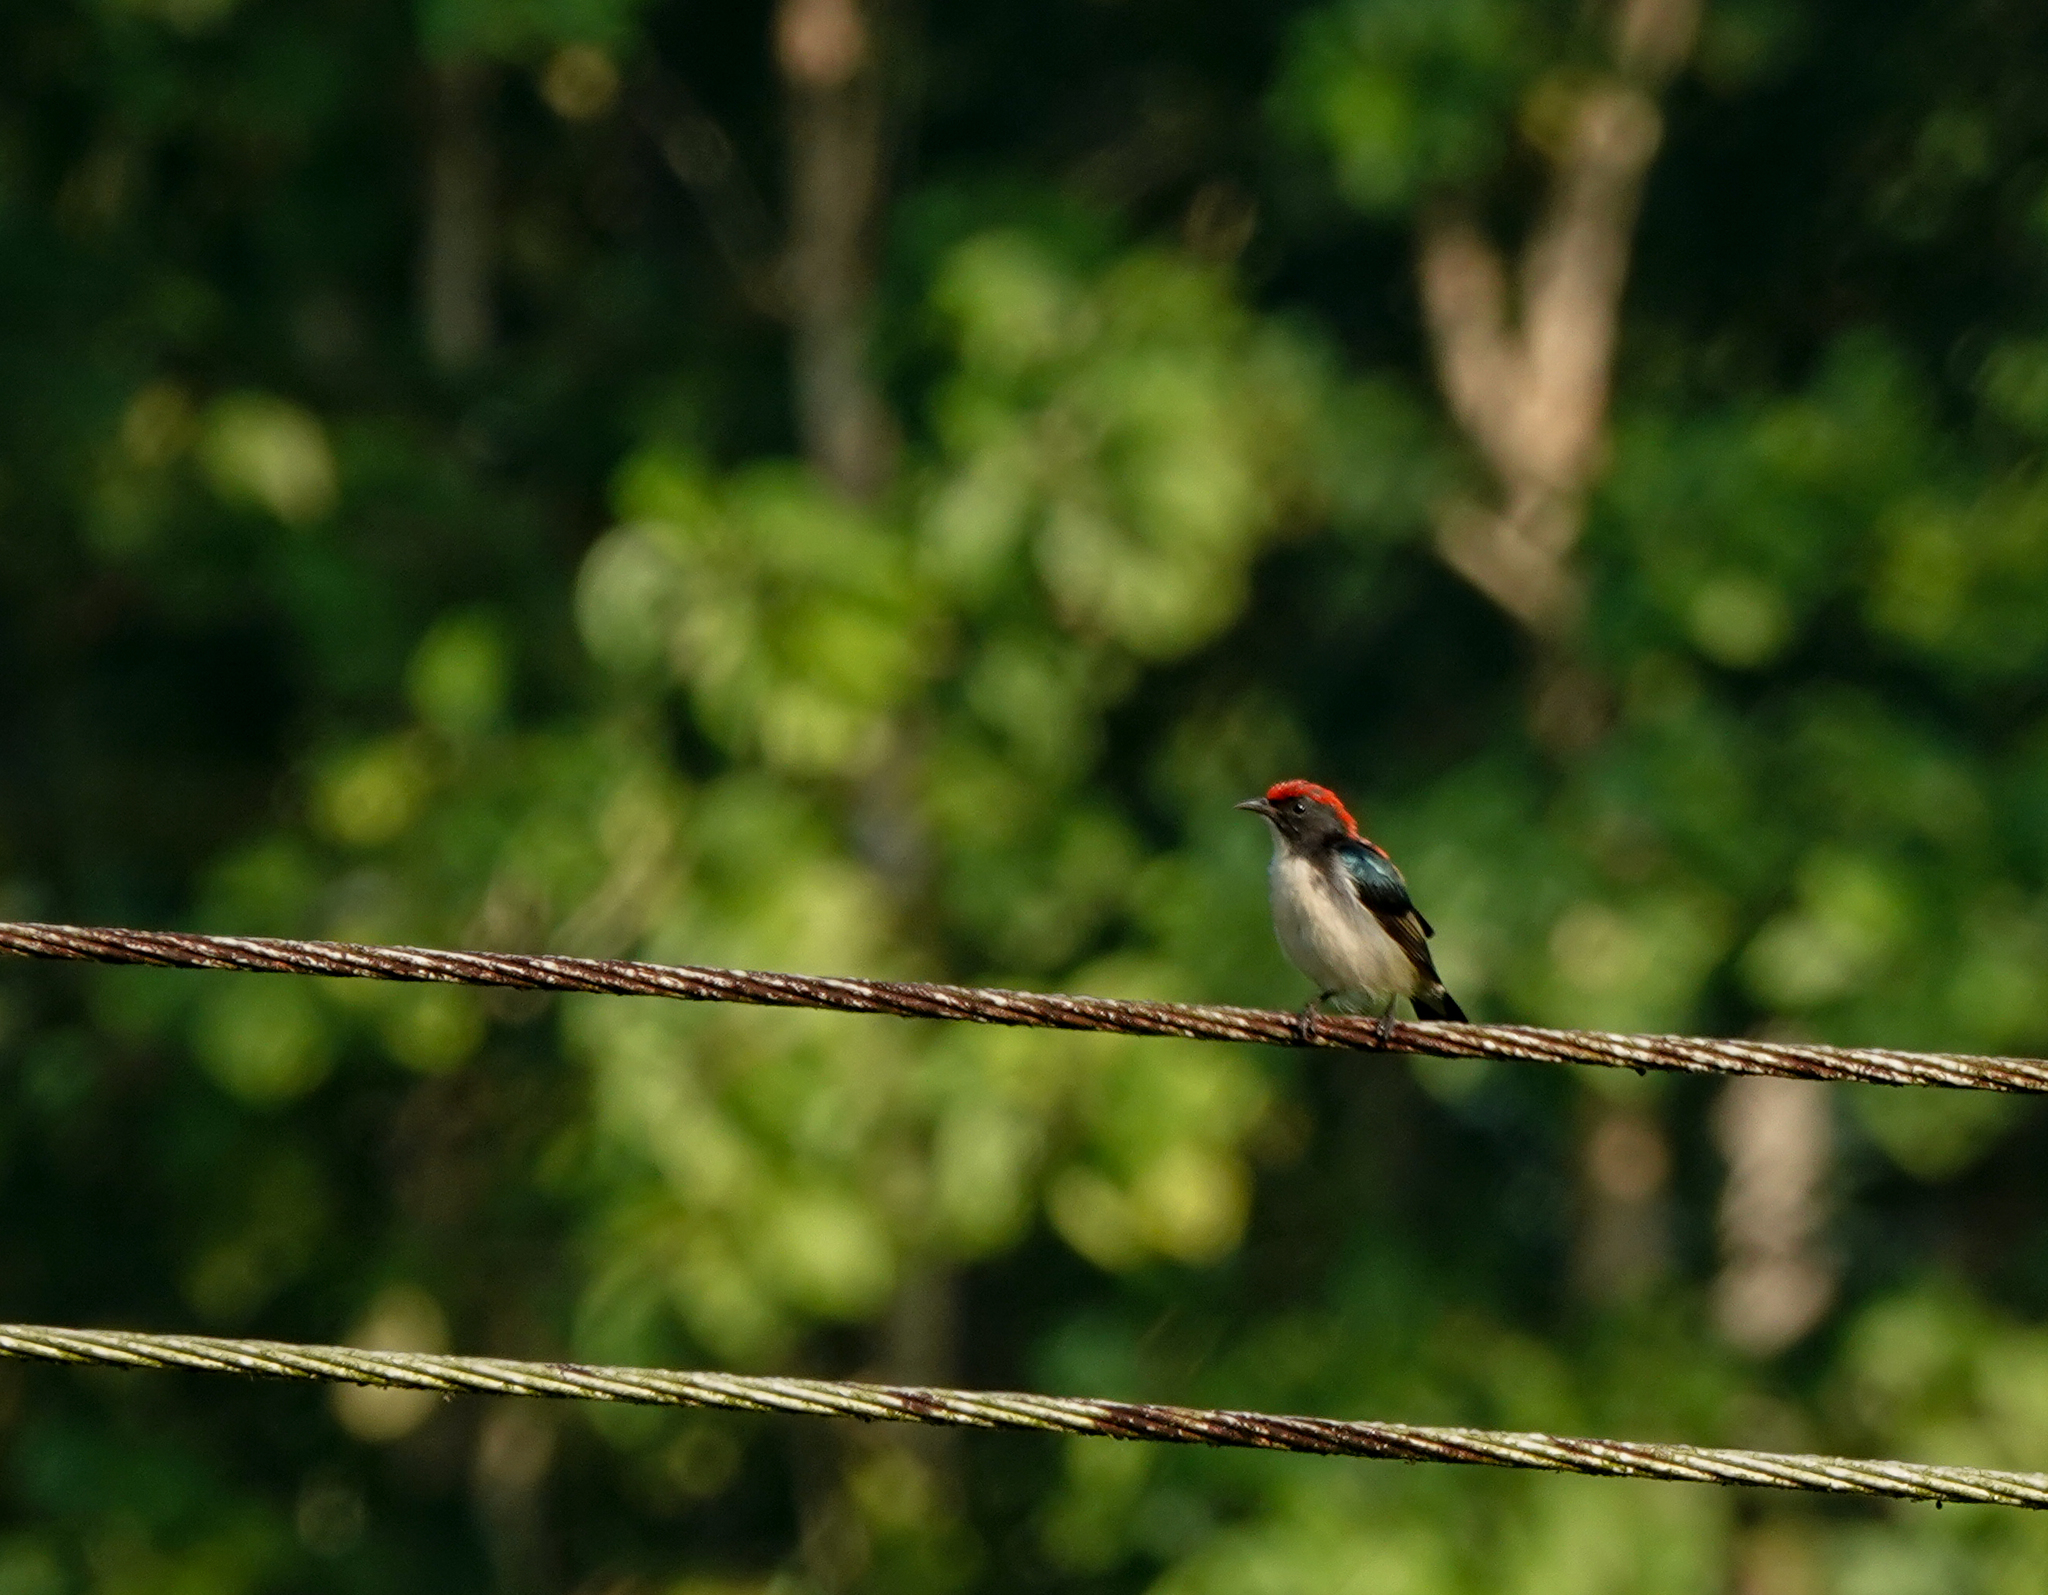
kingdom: Animalia
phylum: Chordata
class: Aves
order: Passeriformes
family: Dicaeidae
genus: Dicaeum
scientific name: Dicaeum cruentatum
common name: Scarlet-backed flowerpecker
